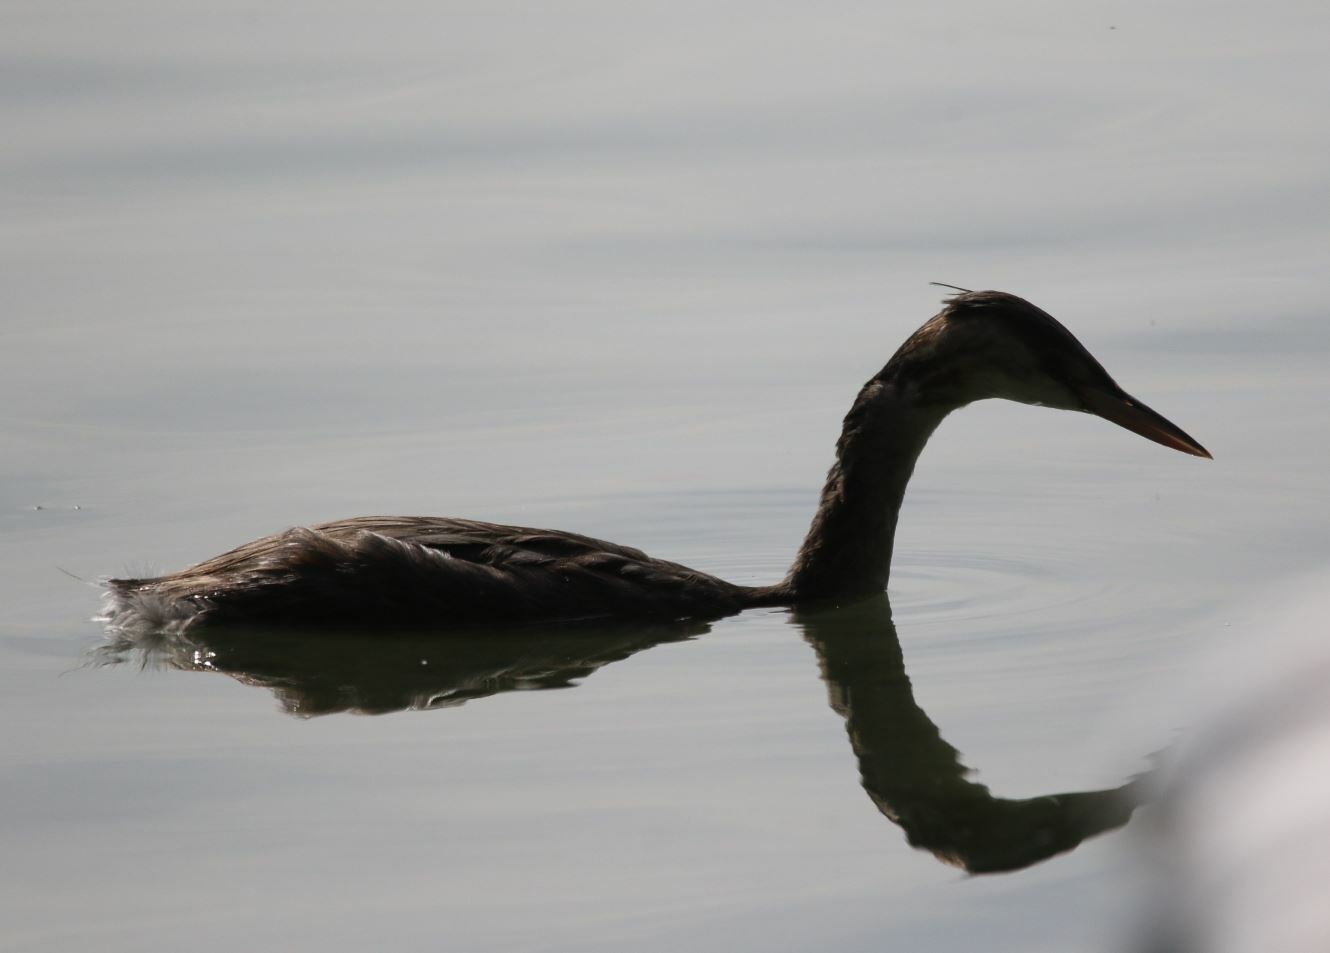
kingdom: Animalia
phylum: Chordata
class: Aves
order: Podicipediformes
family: Podicipedidae
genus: Podiceps
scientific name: Podiceps cristatus
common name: Great crested grebe
